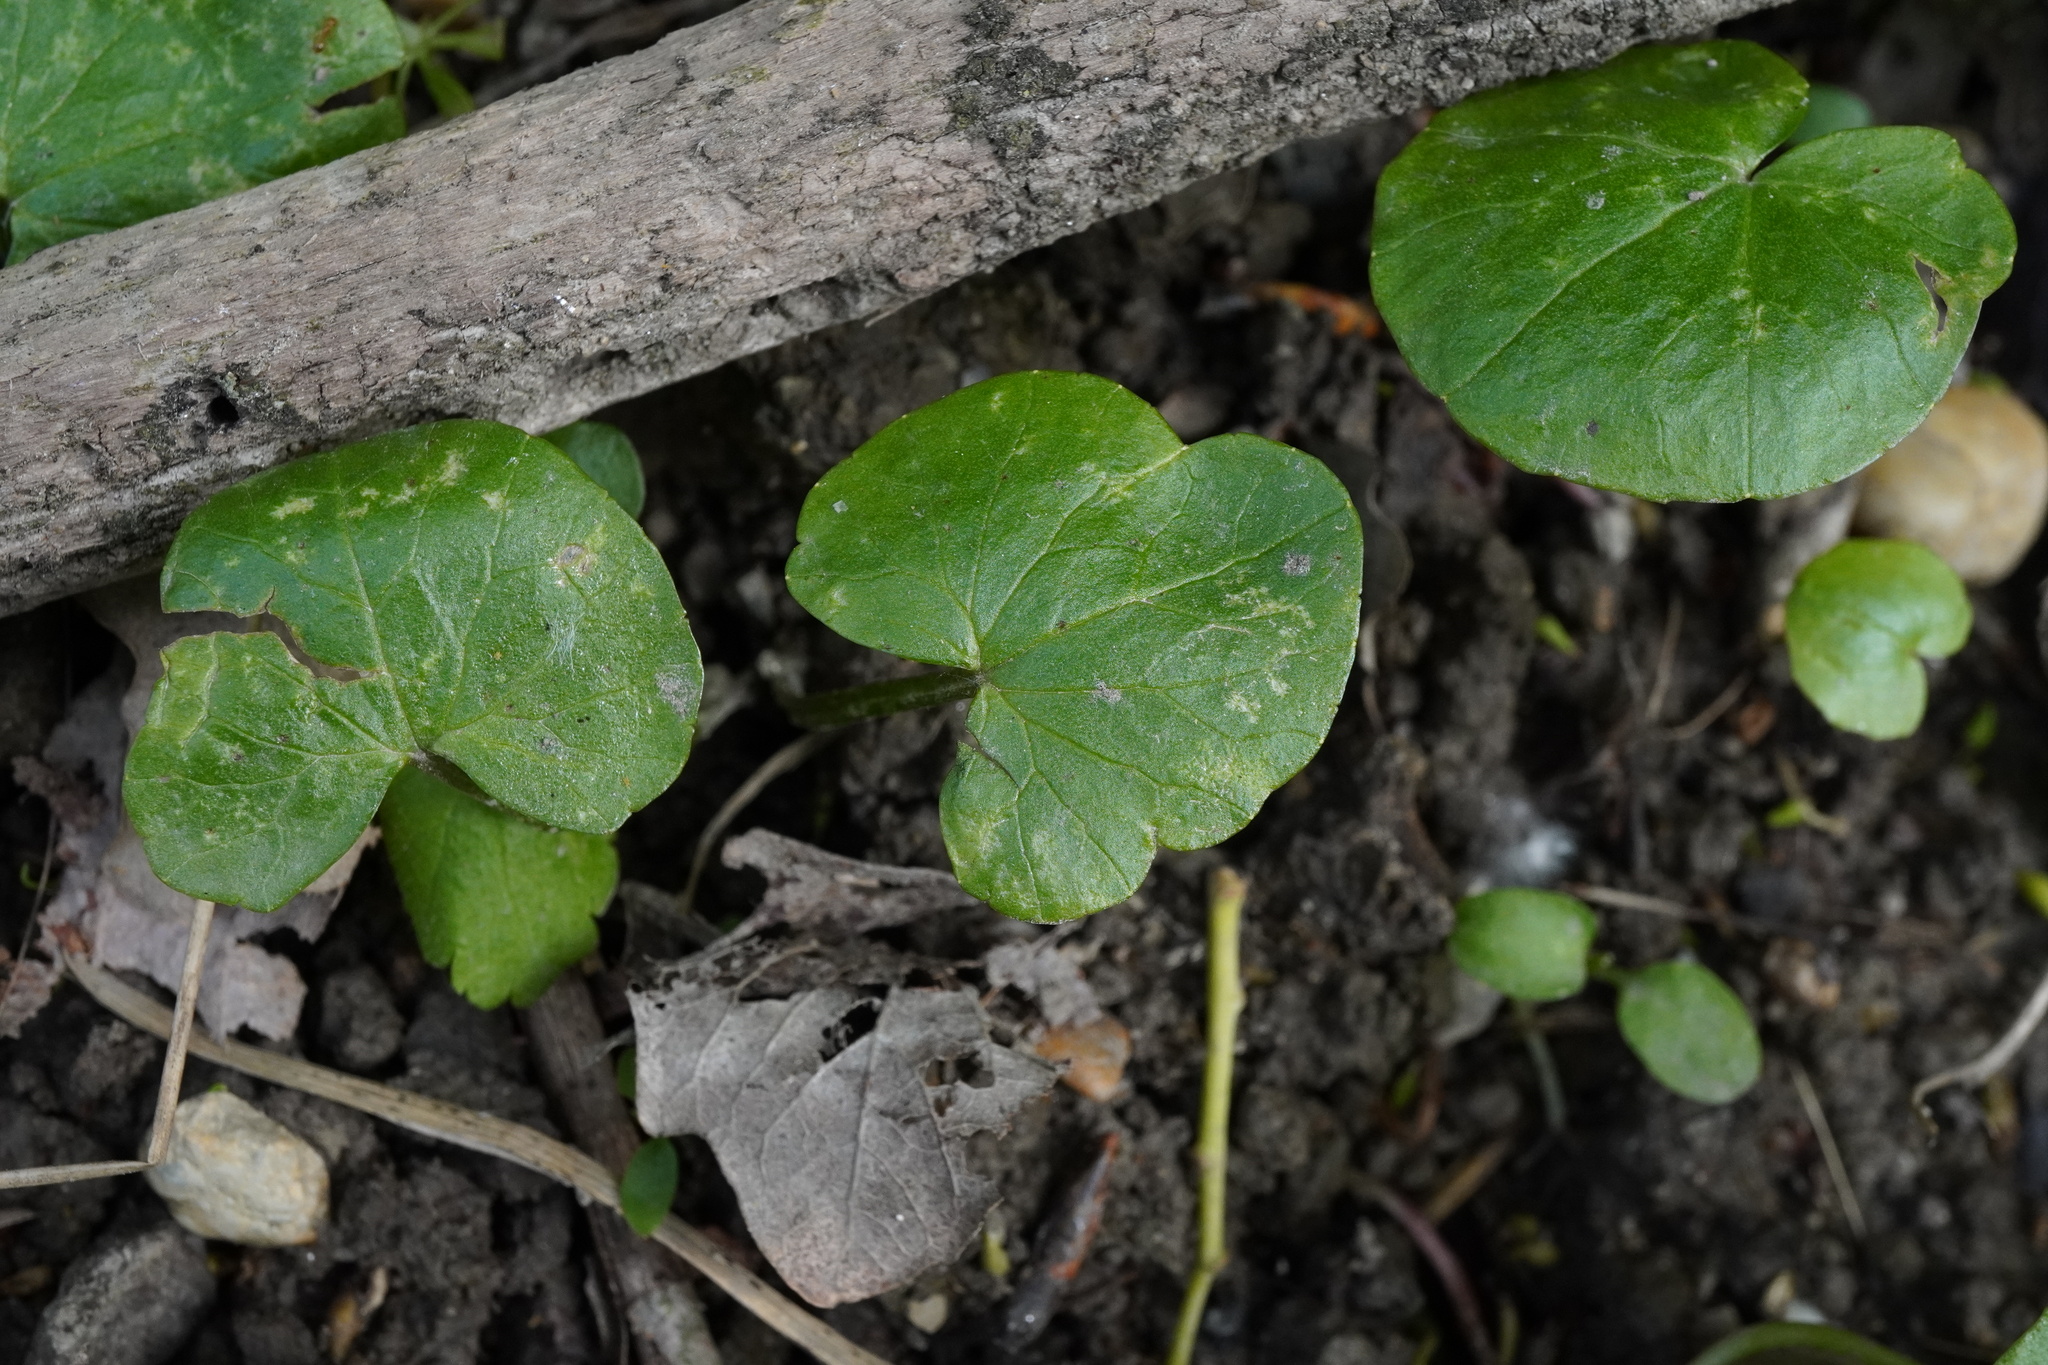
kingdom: Plantae
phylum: Tracheophyta
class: Magnoliopsida
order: Ranunculales
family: Ranunculaceae
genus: Ficaria
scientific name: Ficaria verna
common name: Lesser celandine
